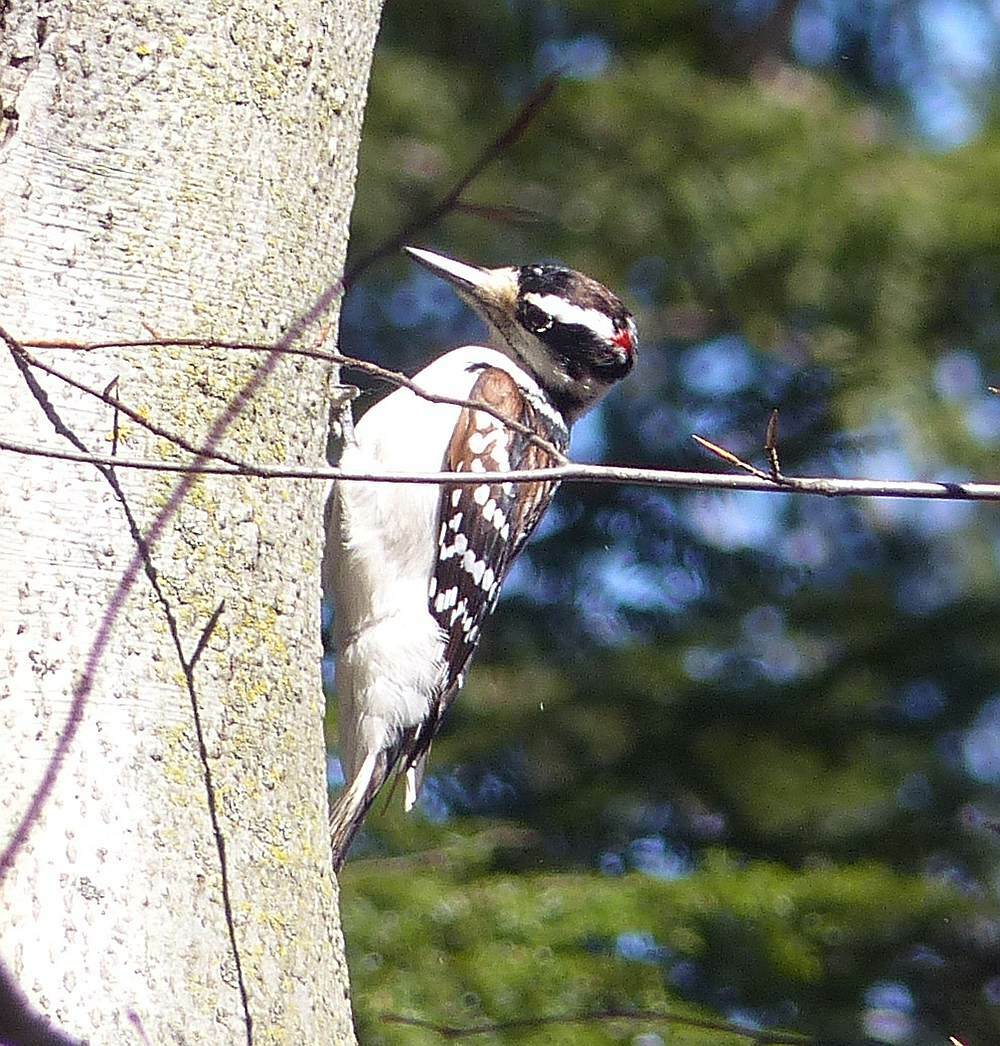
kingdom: Animalia
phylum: Chordata
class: Aves
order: Piciformes
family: Picidae
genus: Leuconotopicus
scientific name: Leuconotopicus villosus
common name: Hairy woodpecker
